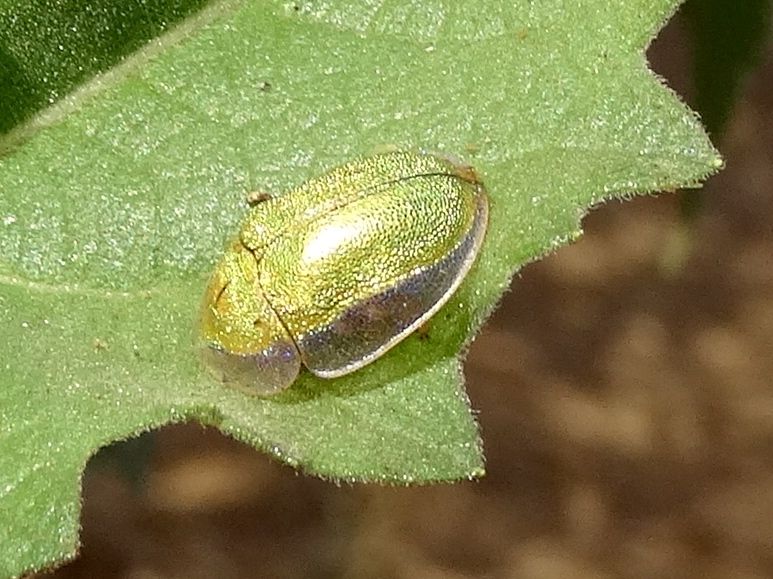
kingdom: Animalia
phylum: Arthropoda
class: Insecta
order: Coleoptera
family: Chrysomelidae
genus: Physonota
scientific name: Physonota
